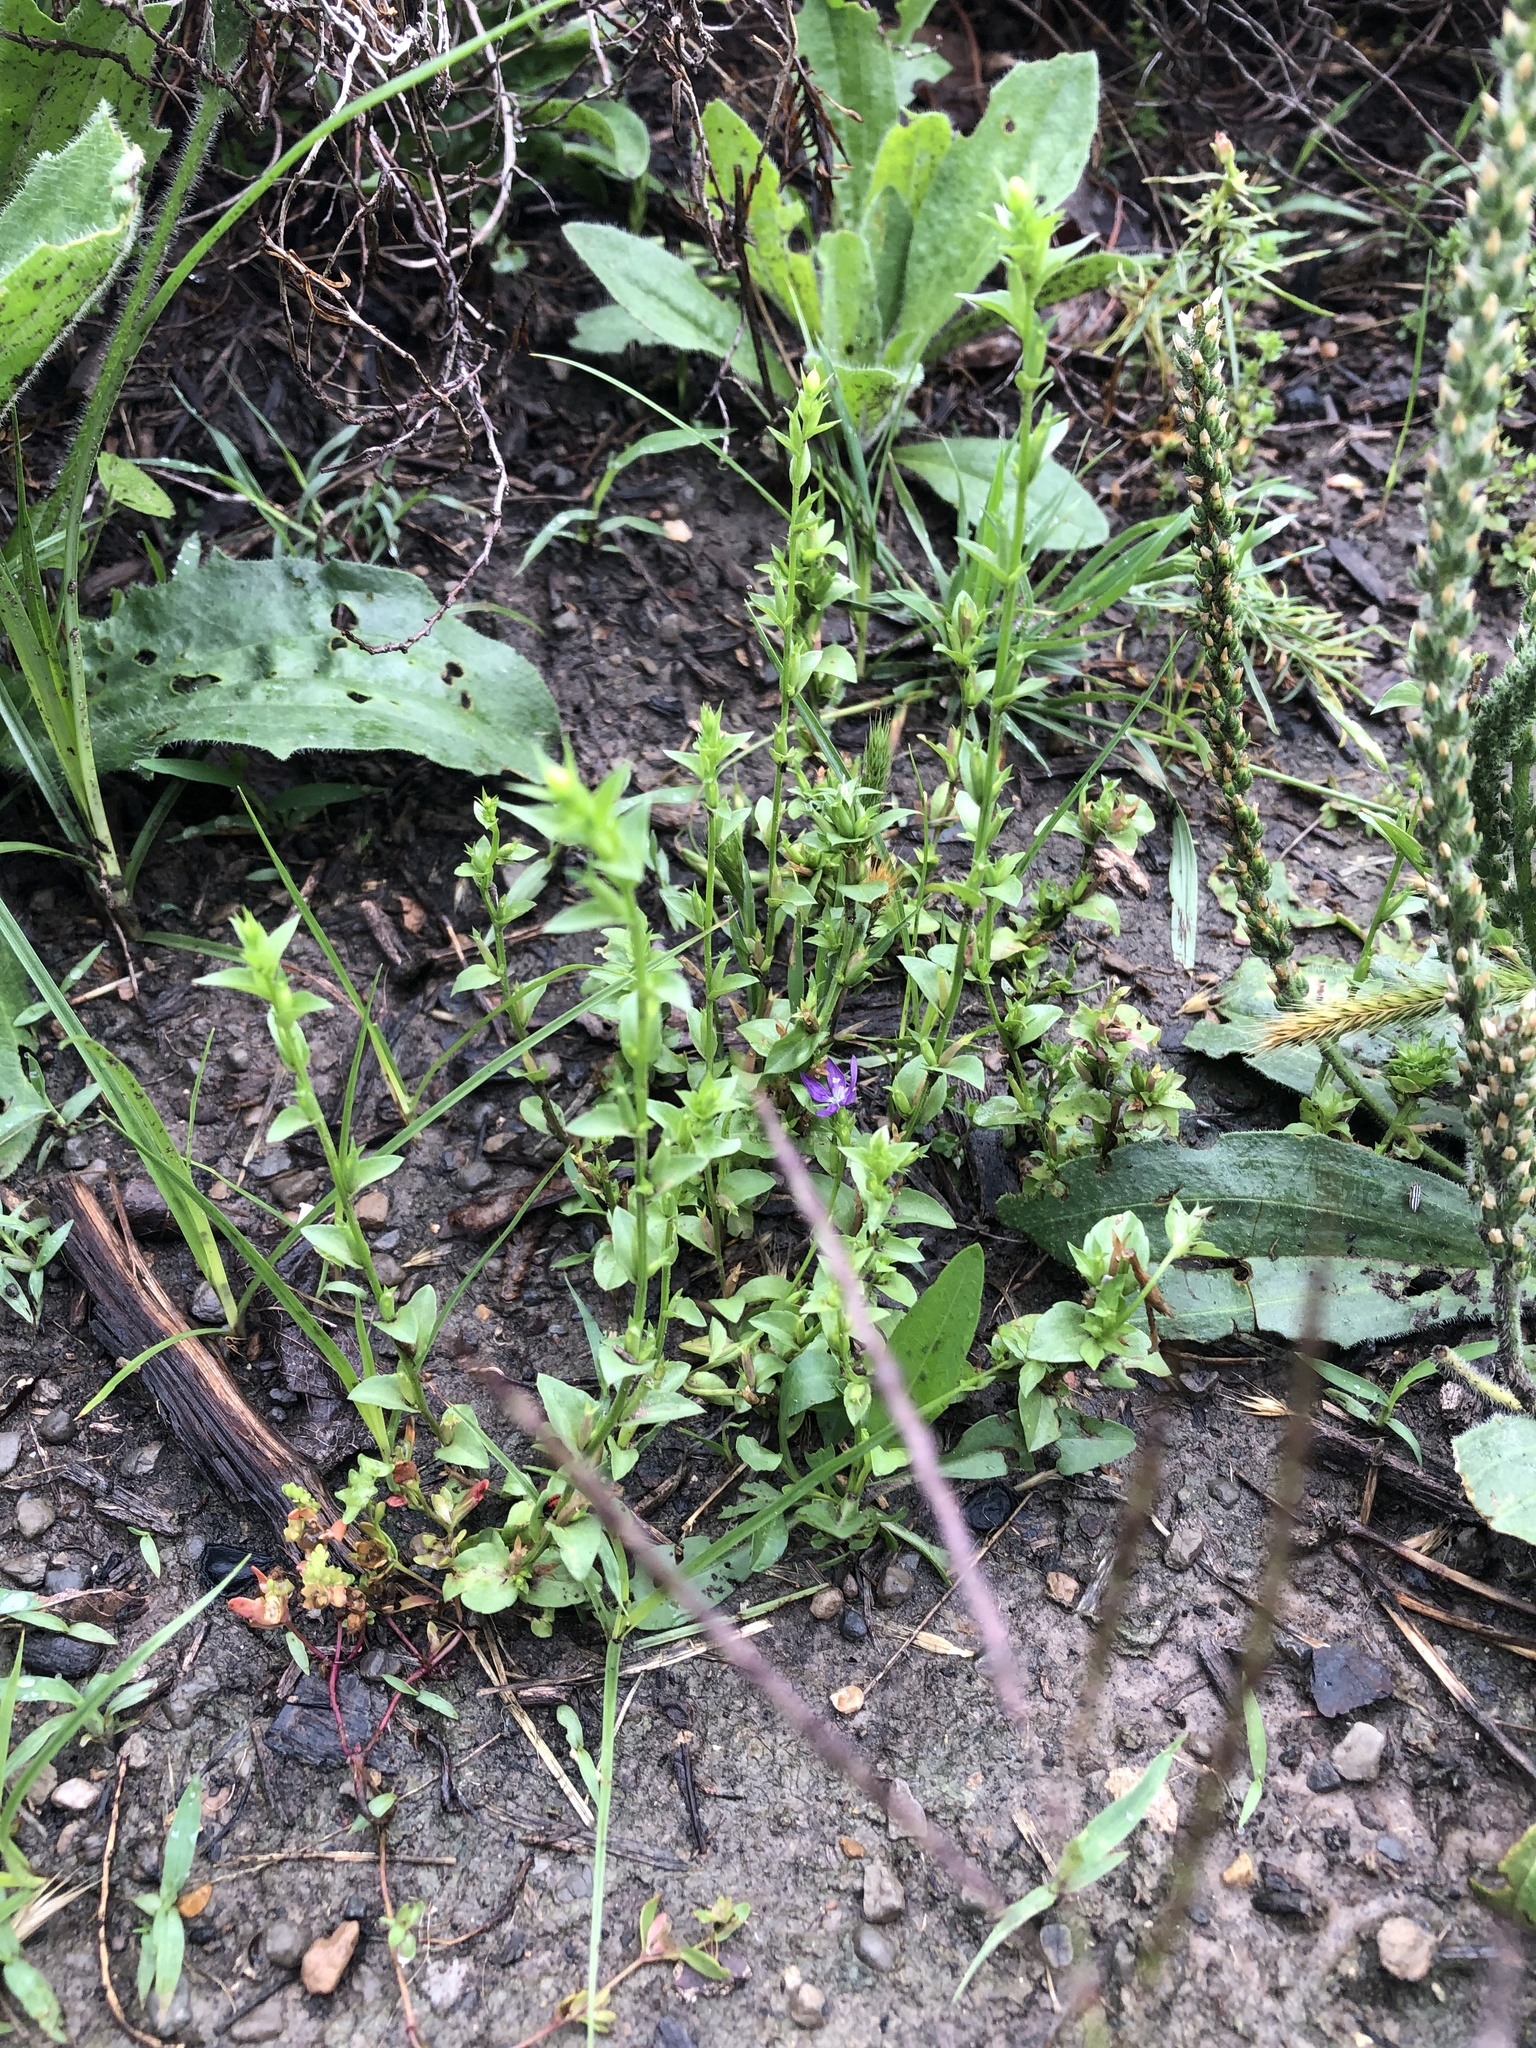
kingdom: Plantae
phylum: Tracheophyta
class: Magnoliopsida
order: Asterales
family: Campanulaceae
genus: Triodanis
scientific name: Triodanis biflora
